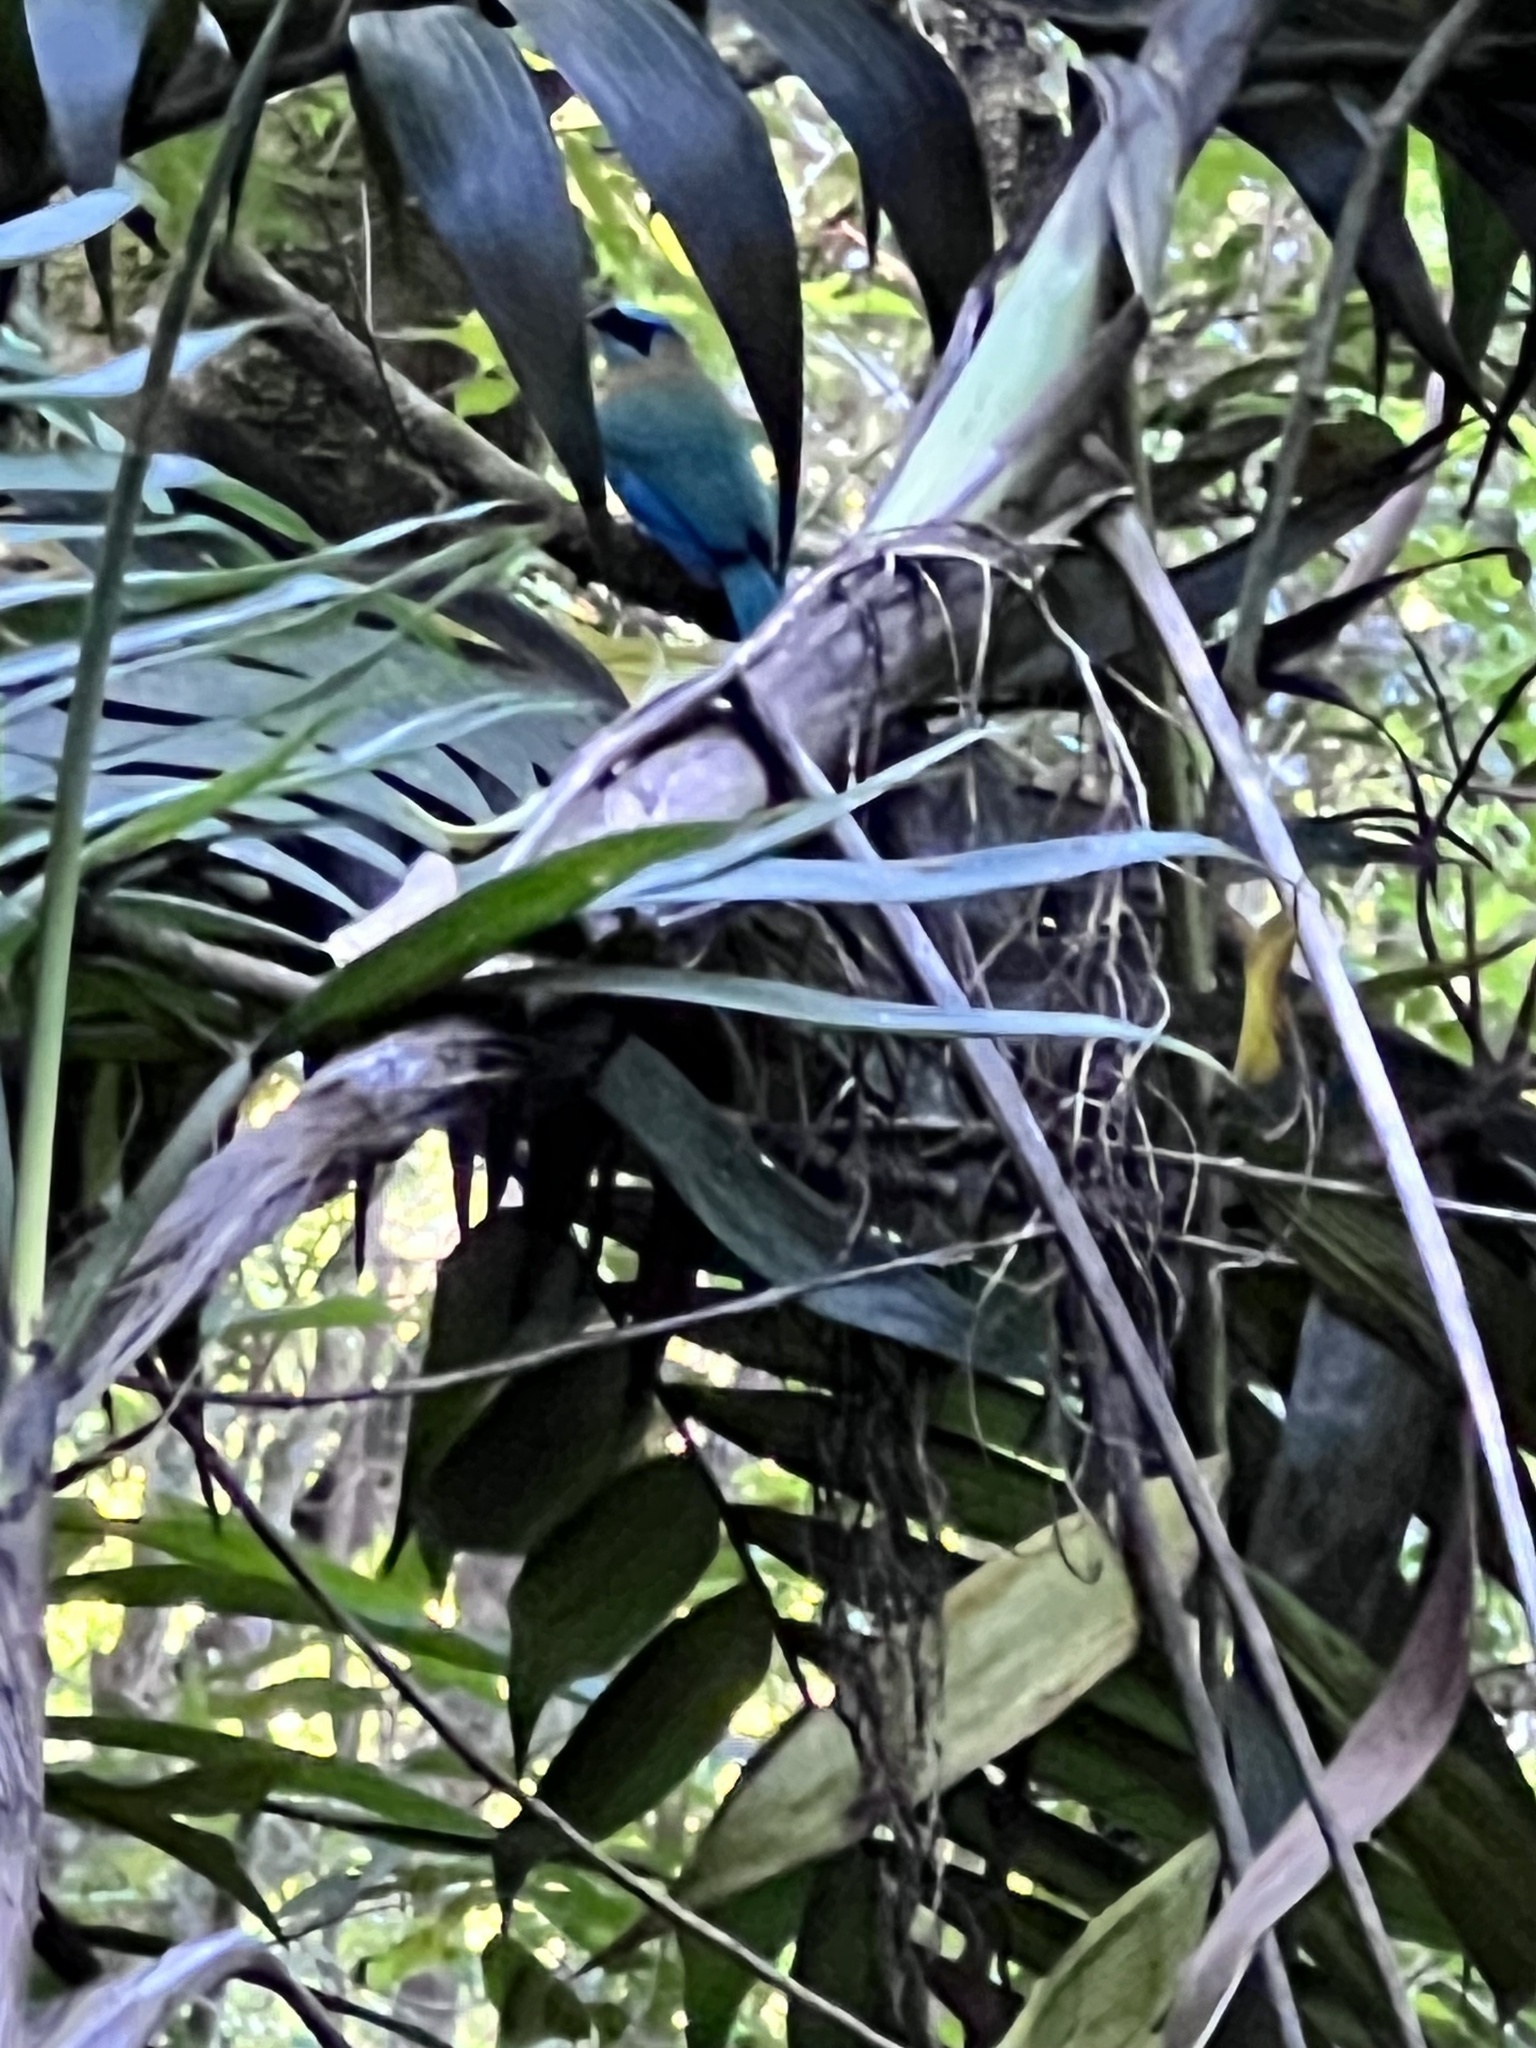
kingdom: Animalia
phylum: Chordata
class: Aves
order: Coraciiformes
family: Momotidae
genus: Momotus
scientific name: Momotus lessonii
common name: Lesson's motmot
